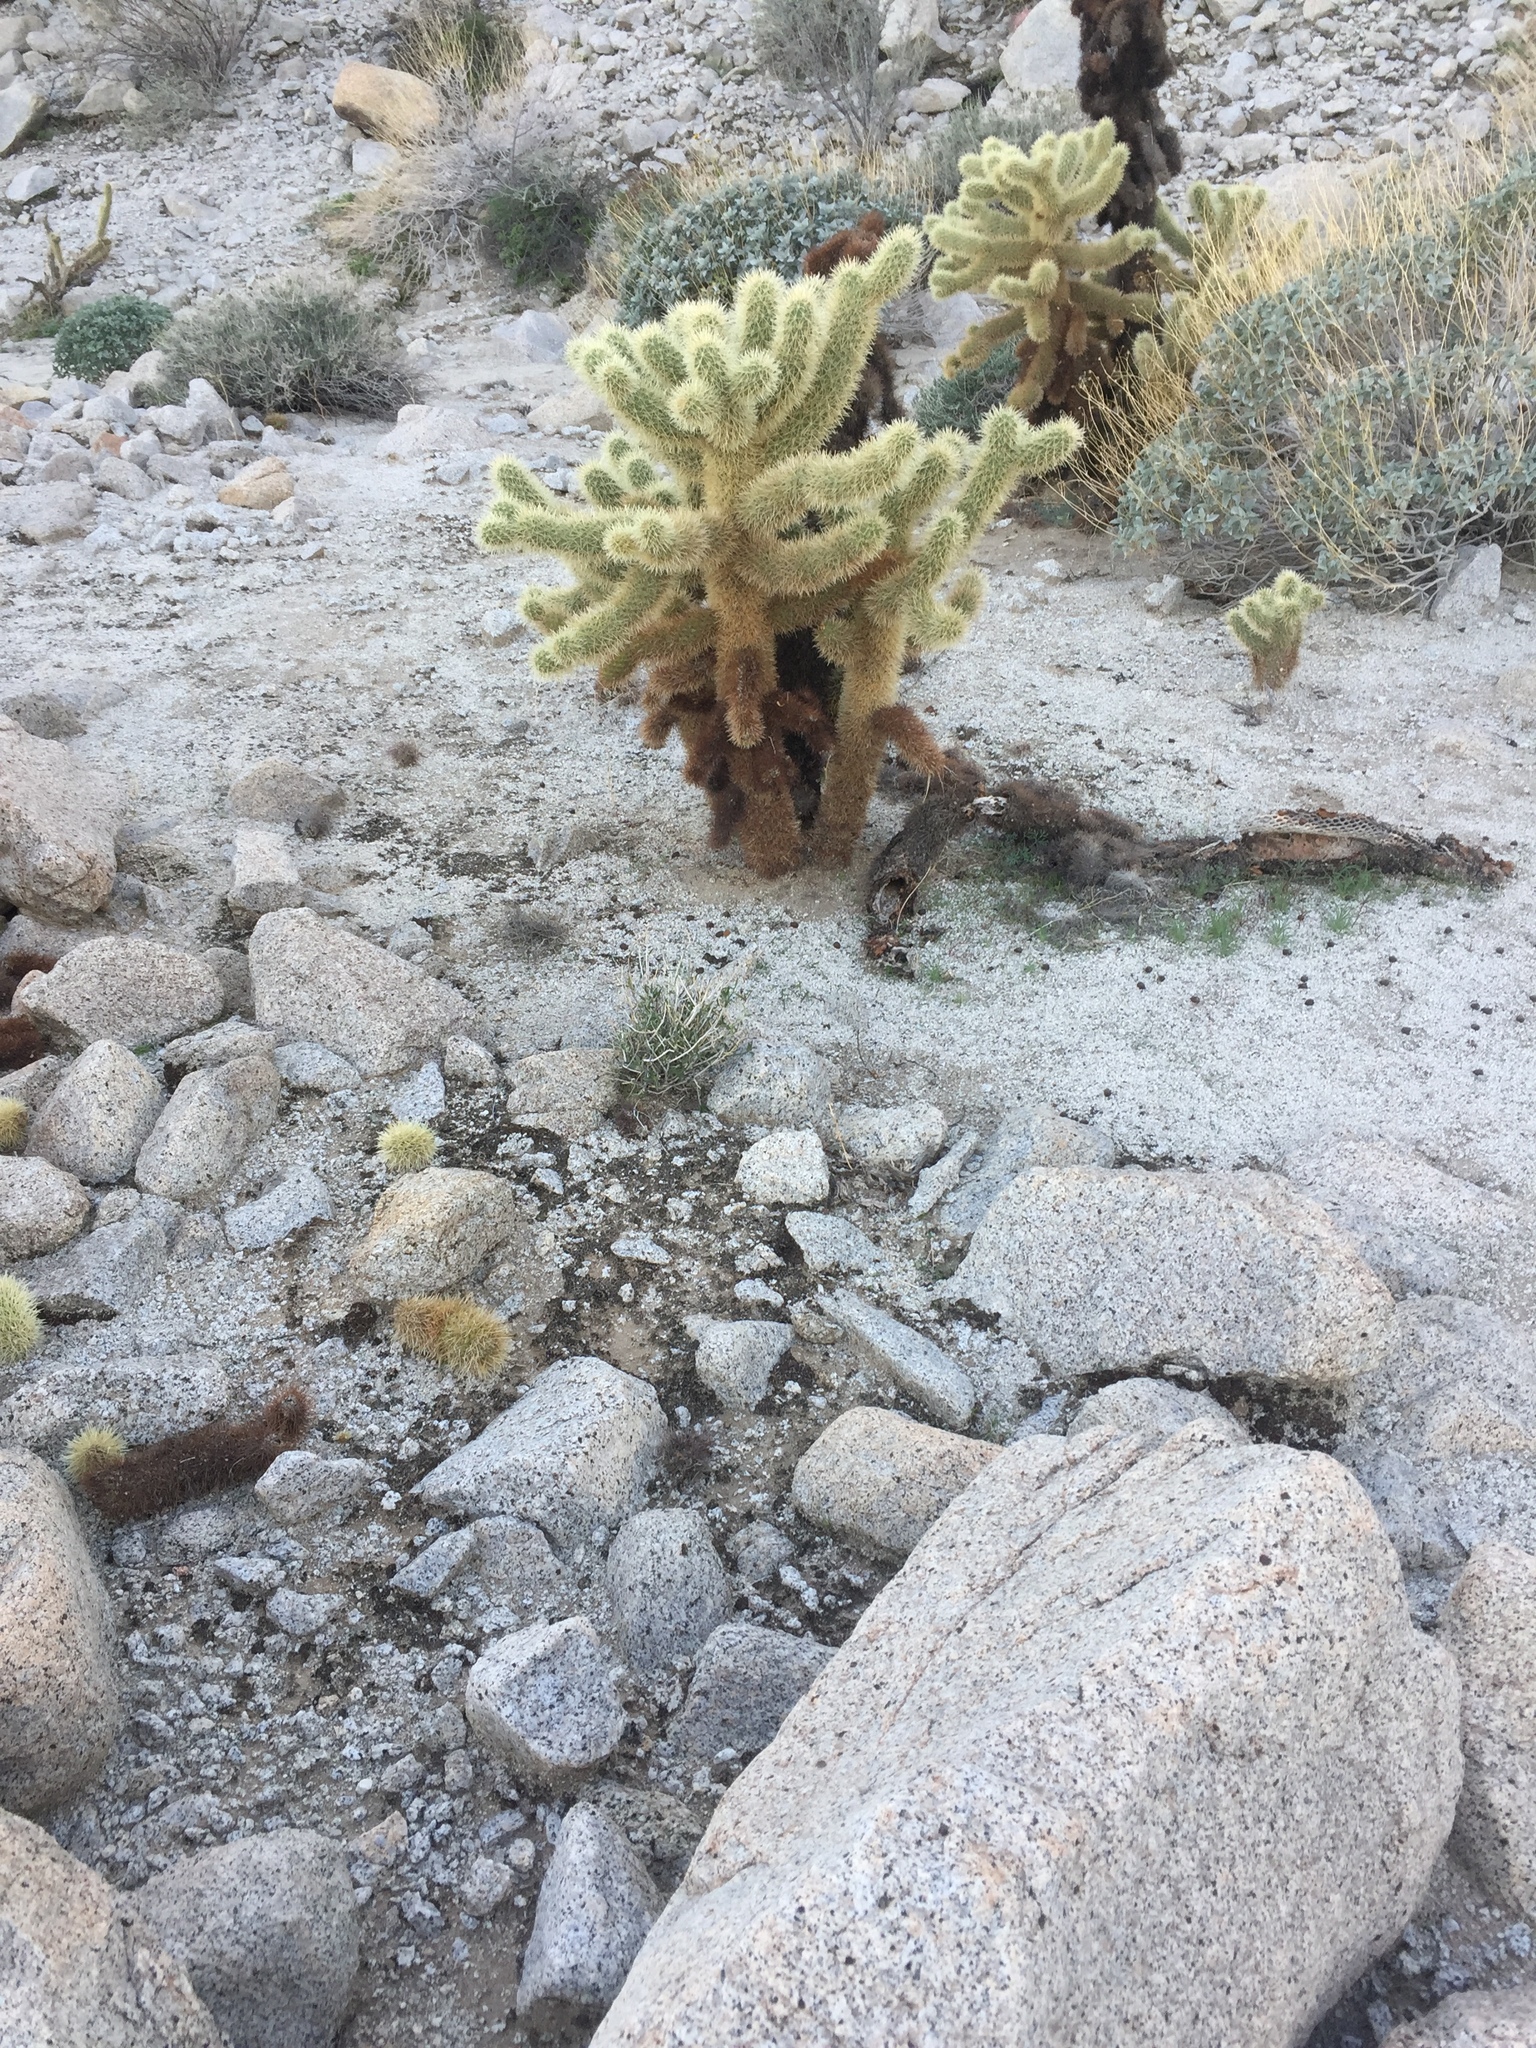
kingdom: Plantae
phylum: Tracheophyta
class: Magnoliopsida
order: Caryophyllales
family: Cactaceae
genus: Cylindropuntia
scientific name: Cylindropuntia fosbergii
